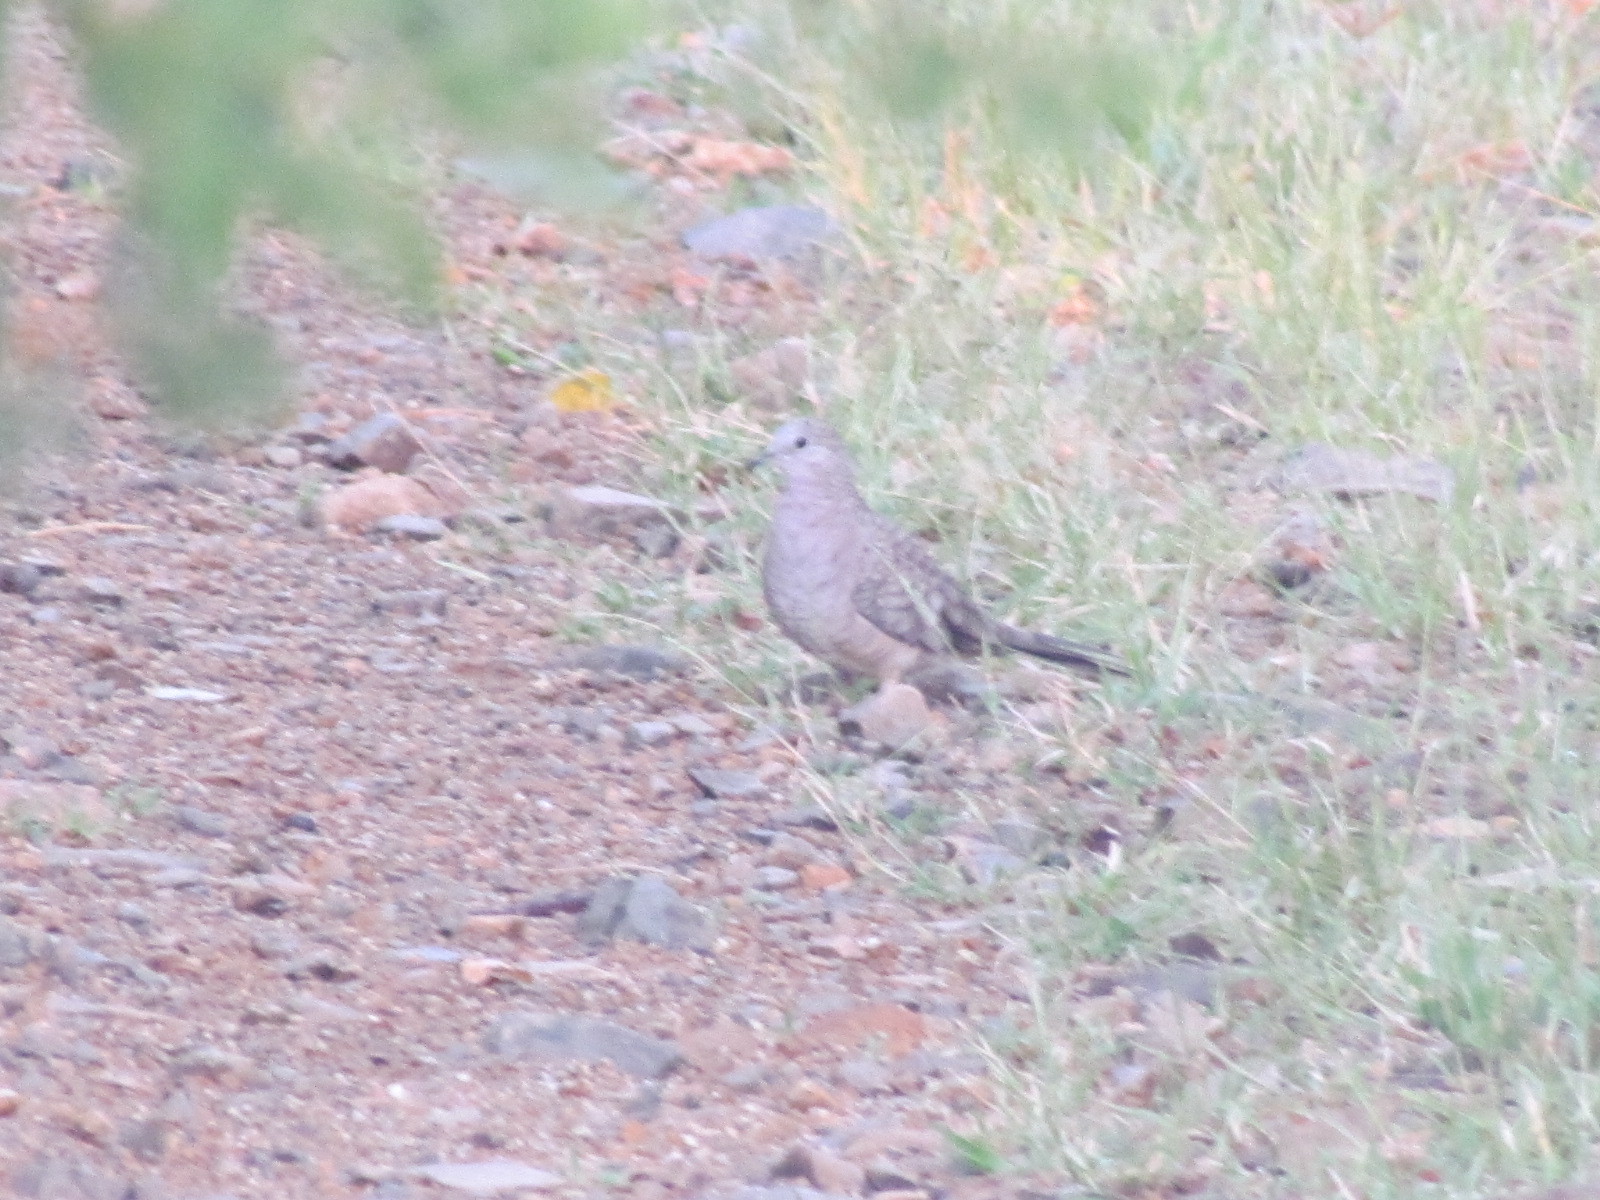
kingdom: Animalia
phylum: Chordata
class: Aves
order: Columbiformes
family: Columbidae
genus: Columbina
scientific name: Columbina inca
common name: Inca dove
